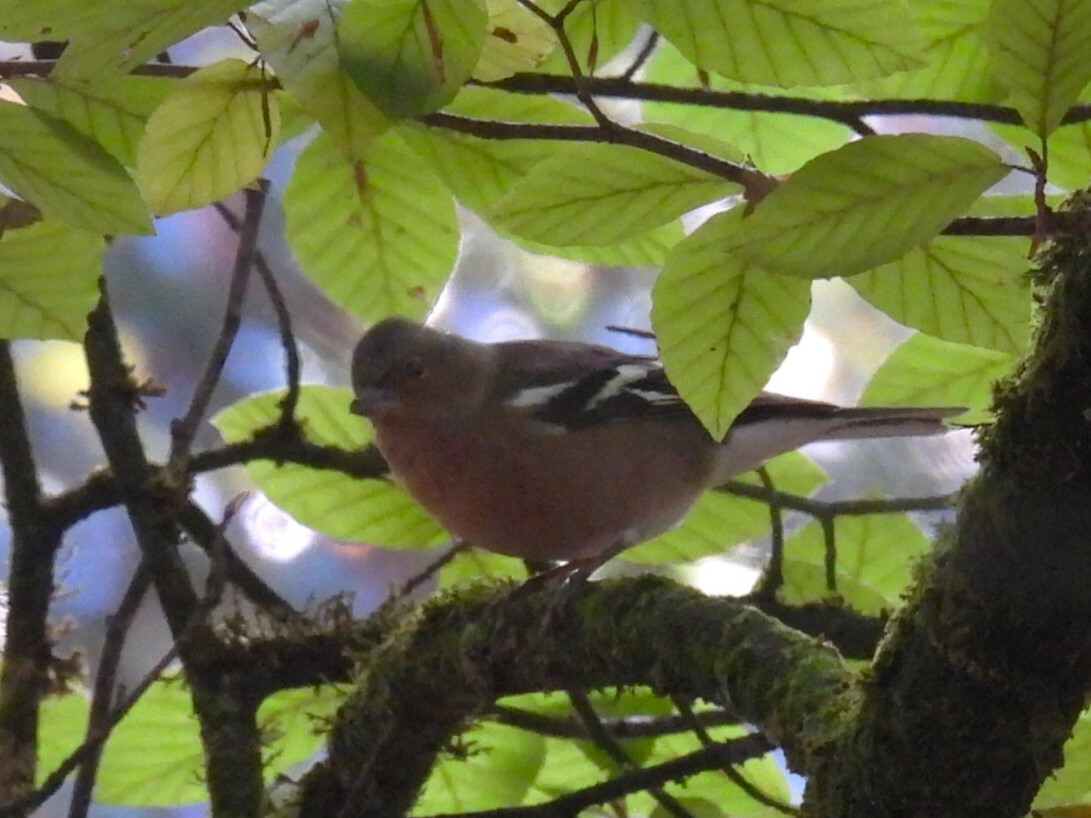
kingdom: Animalia
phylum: Chordata
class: Aves
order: Passeriformes
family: Fringillidae
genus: Fringilla
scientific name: Fringilla coelebs
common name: Common chaffinch
